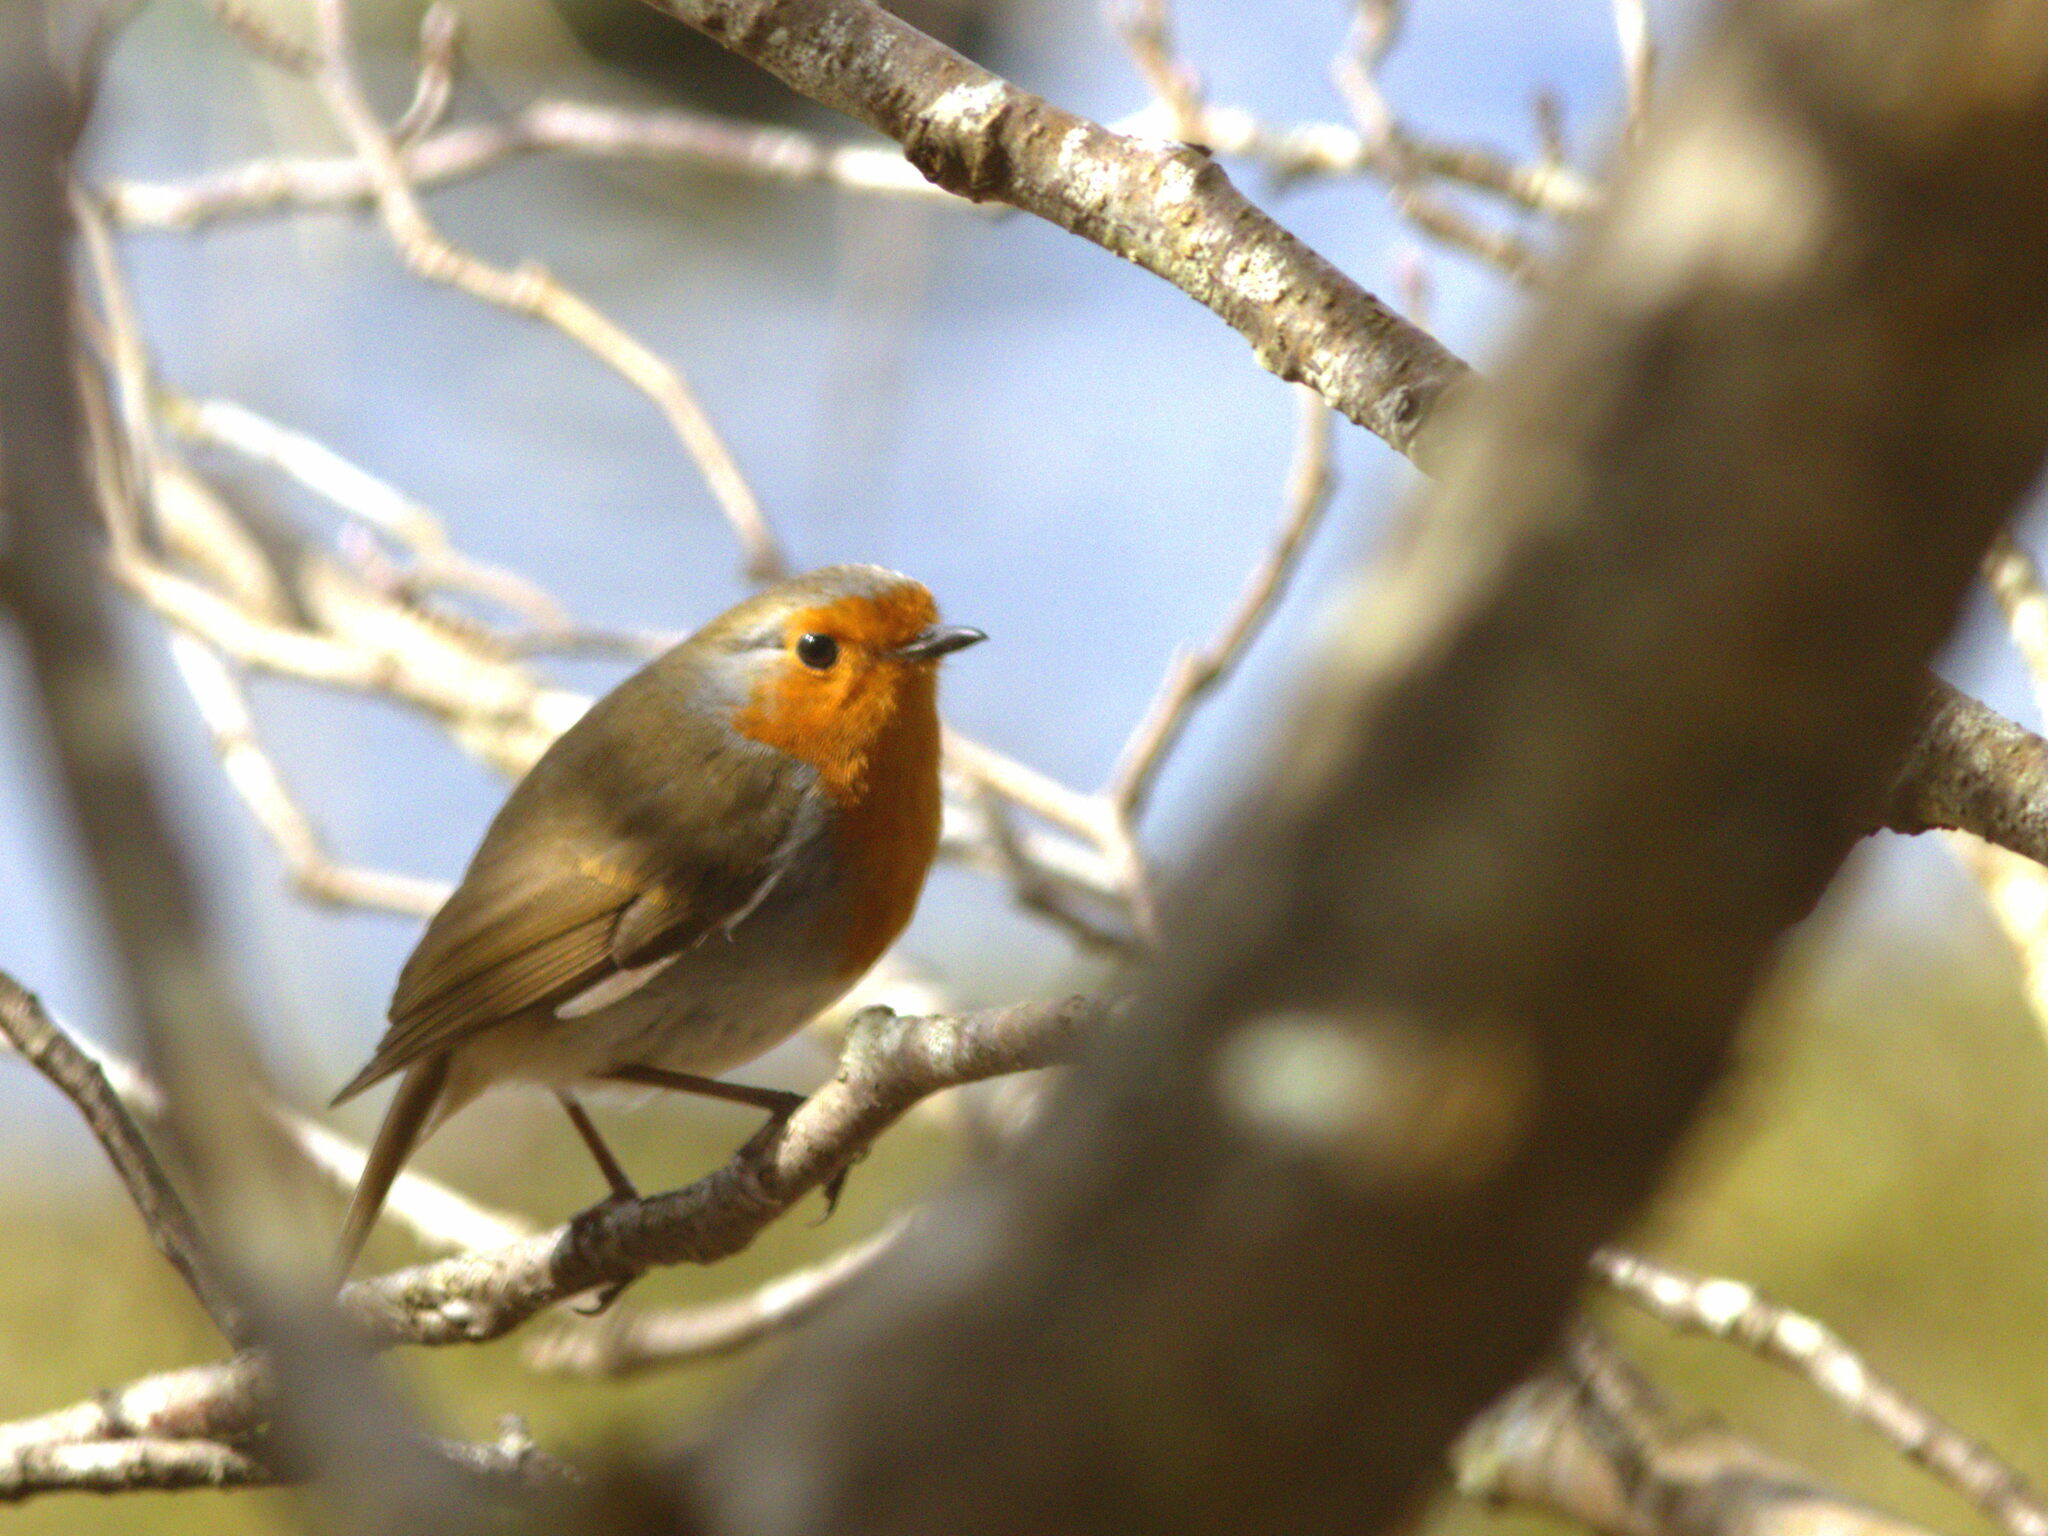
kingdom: Animalia
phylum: Chordata
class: Aves
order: Passeriformes
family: Muscicapidae
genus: Erithacus
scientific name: Erithacus rubecula
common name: European robin
